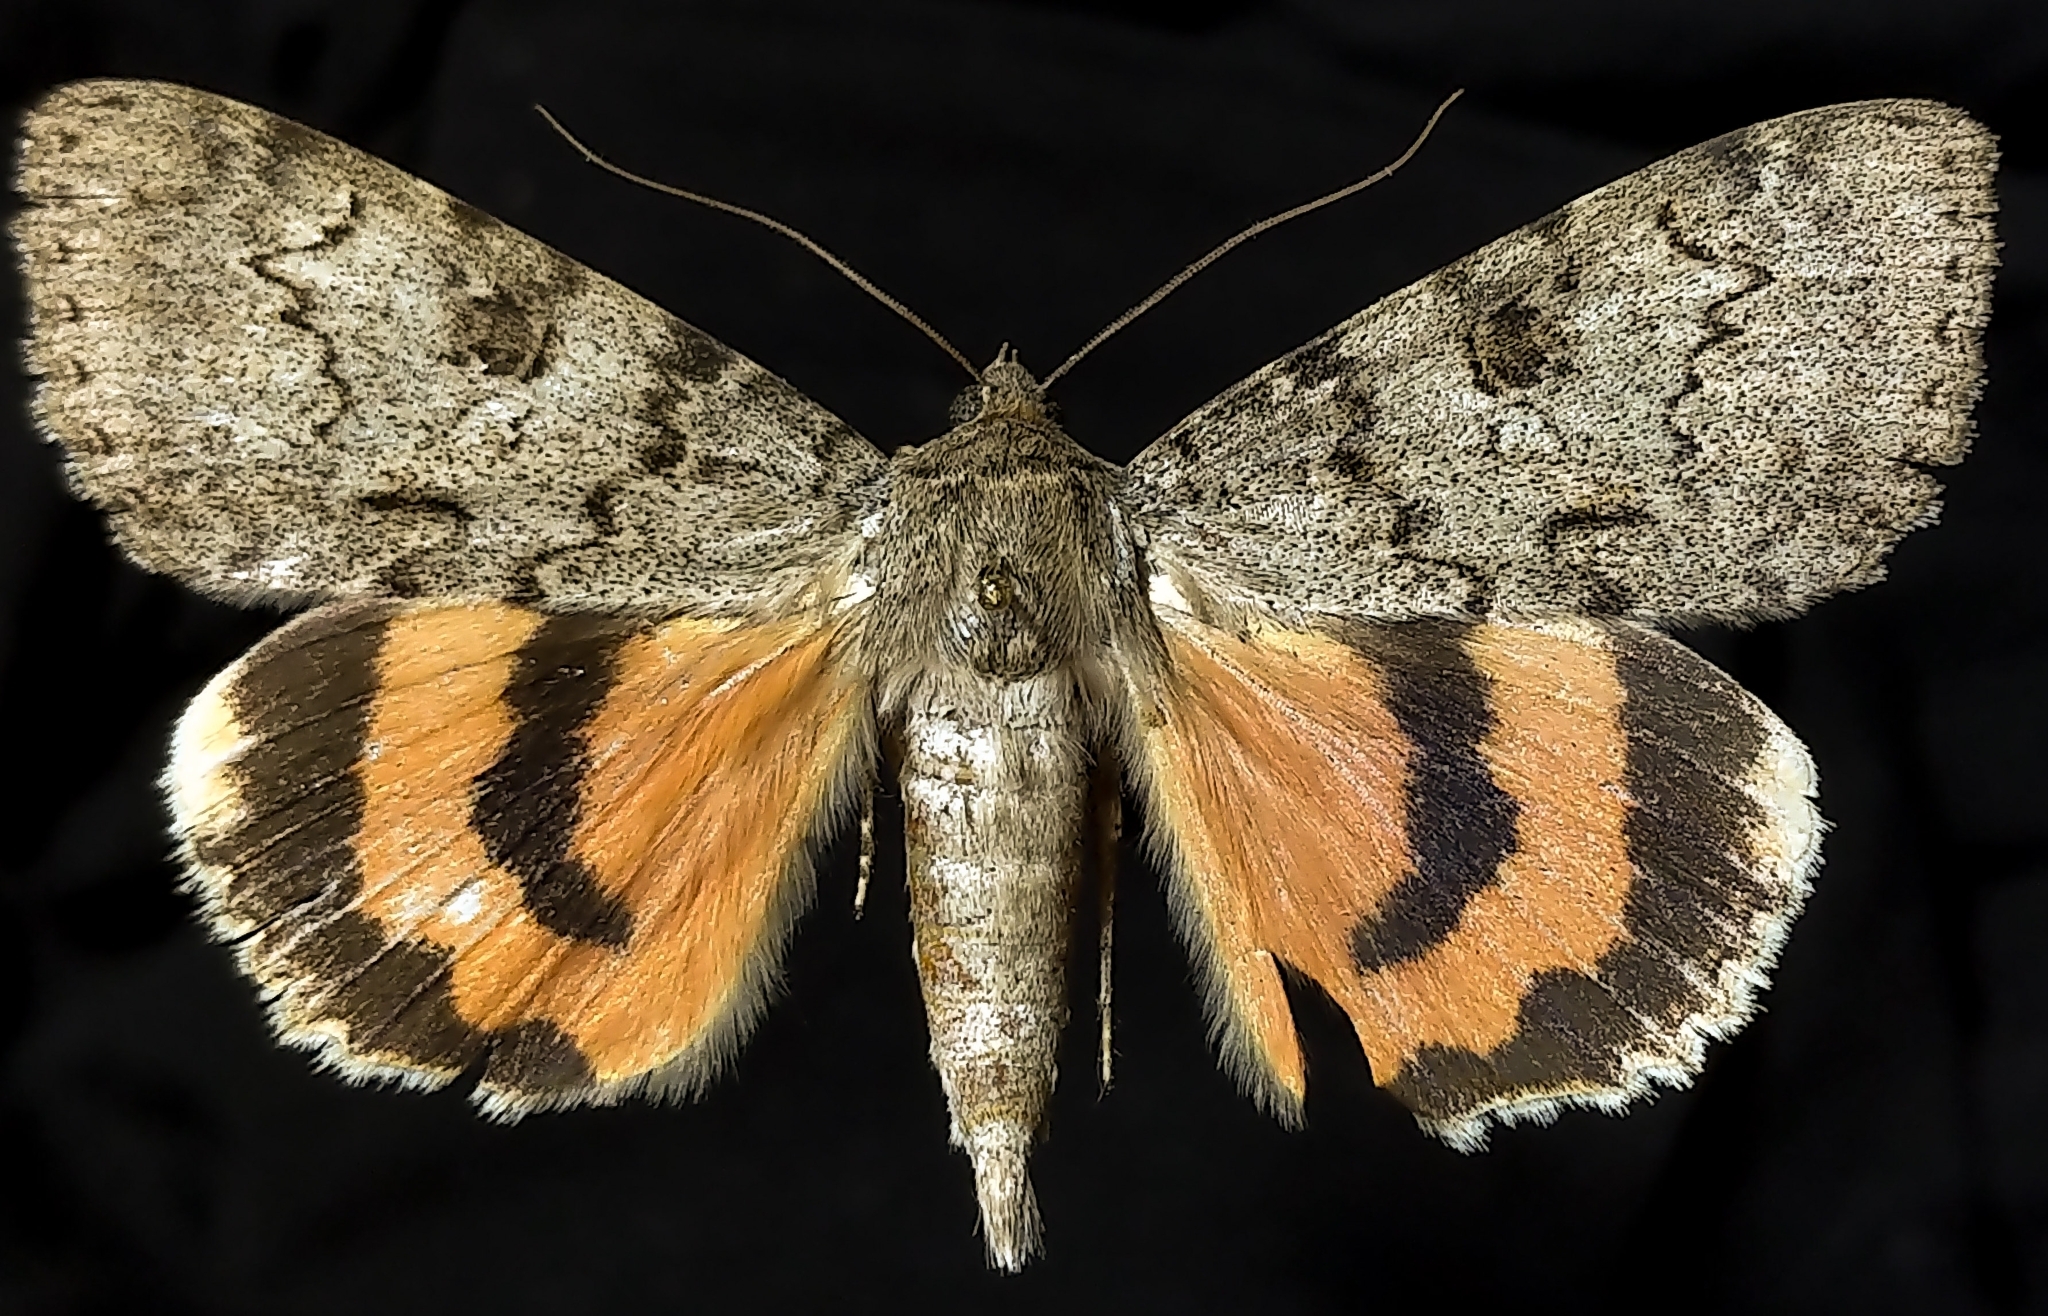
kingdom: Animalia
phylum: Arthropoda
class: Insecta
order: Lepidoptera
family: Erebidae
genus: Catocala
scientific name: Catocala luciana
